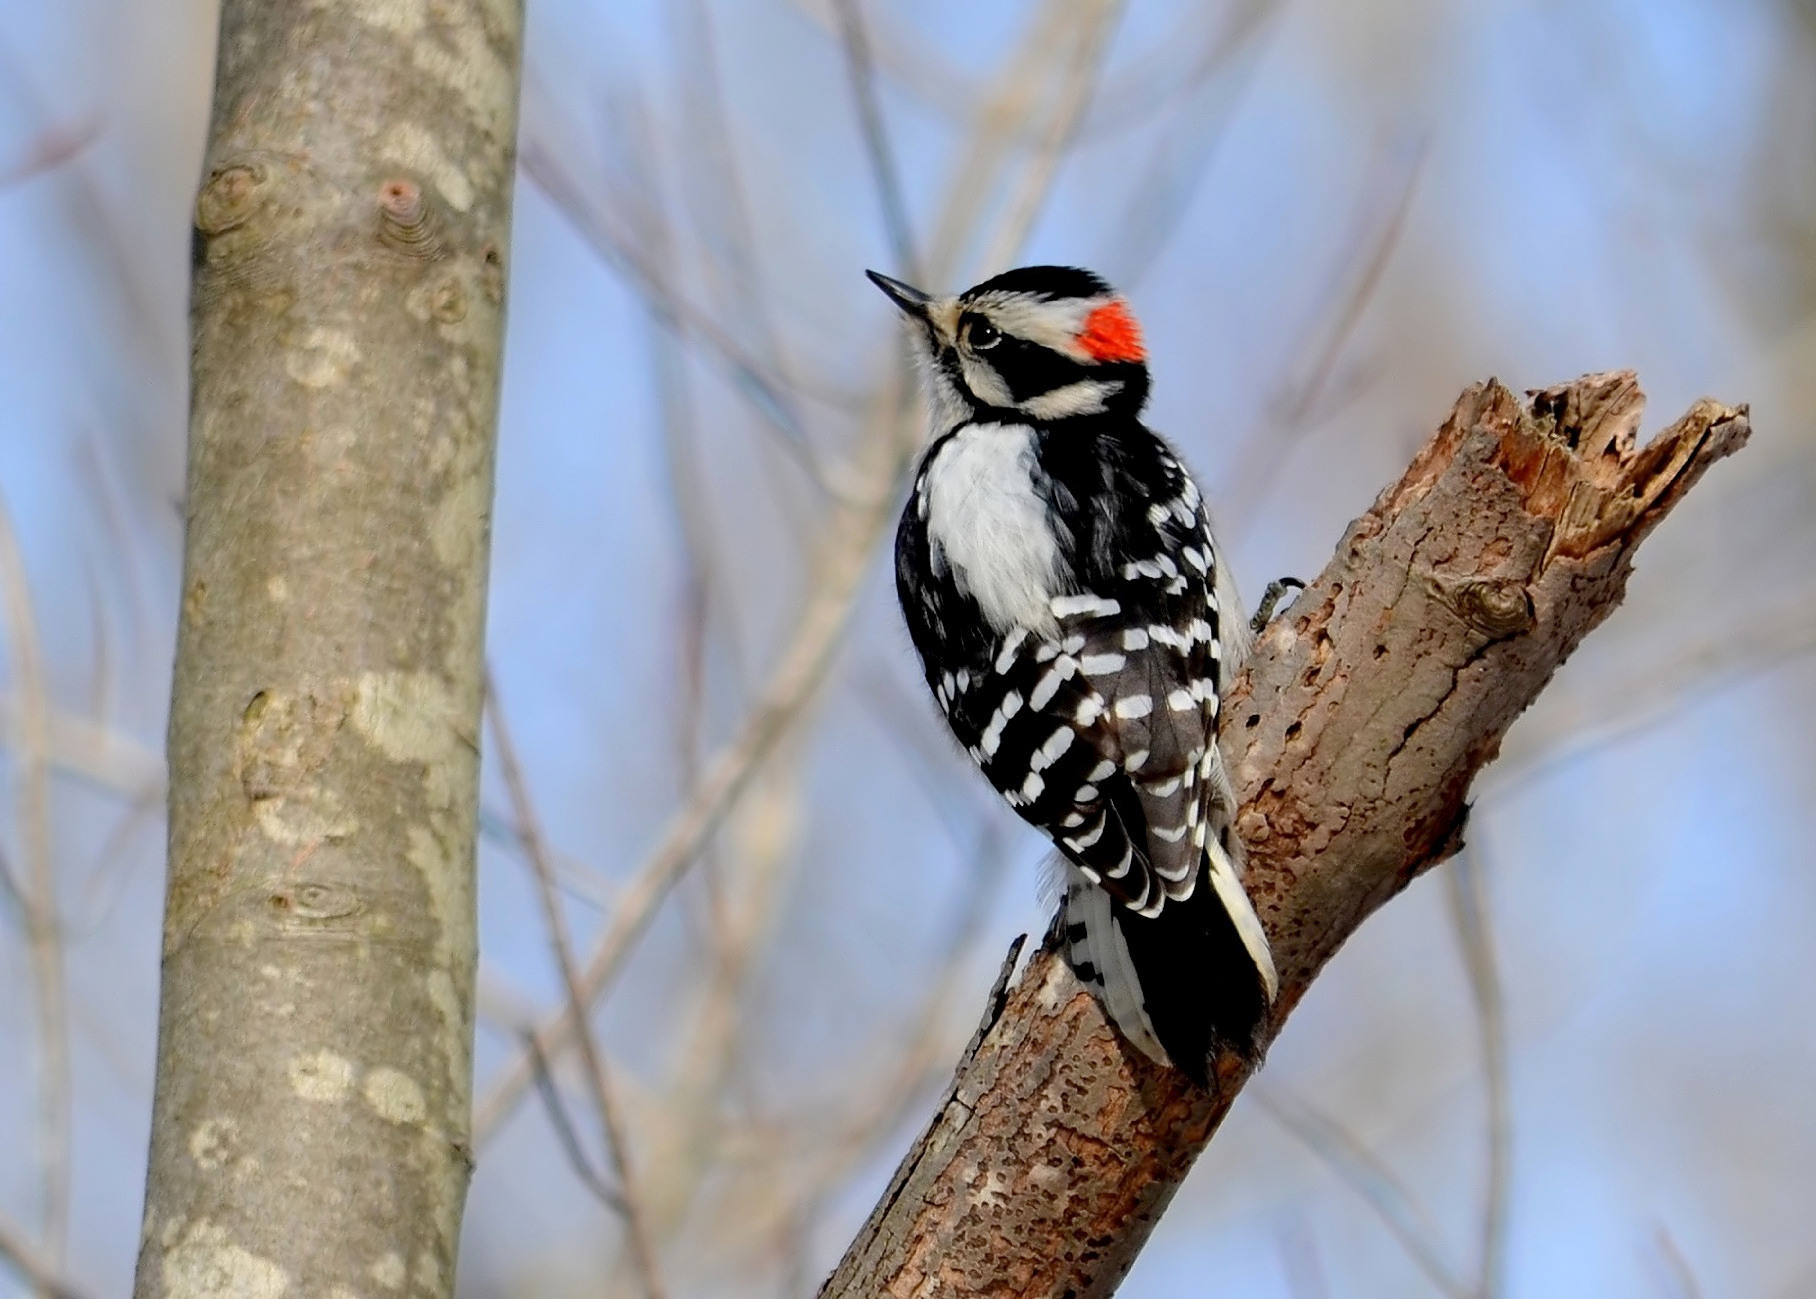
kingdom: Animalia
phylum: Chordata
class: Aves
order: Piciformes
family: Picidae
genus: Dryobates
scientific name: Dryobates pubescens
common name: Downy woodpecker
